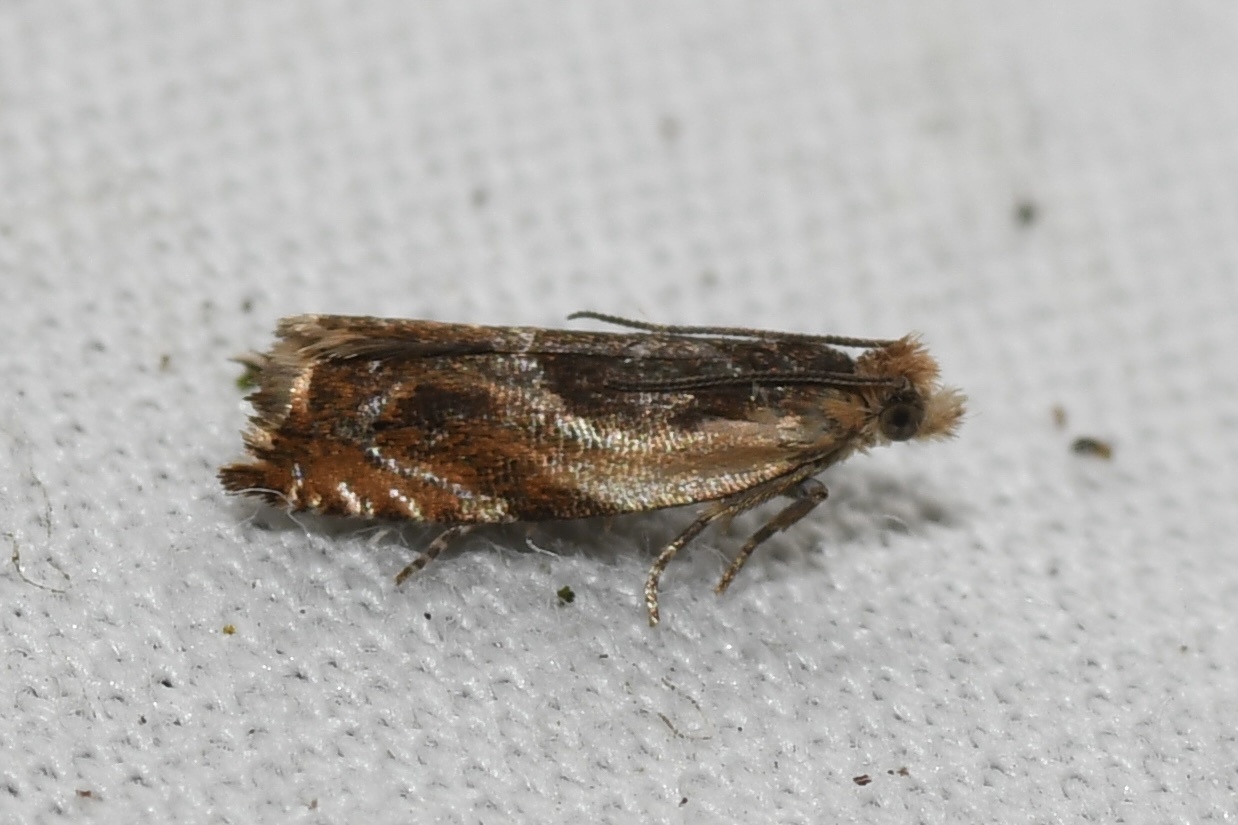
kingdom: Animalia
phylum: Arthropoda
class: Insecta
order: Lepidoptera
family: Tortricidae
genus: Ancylis
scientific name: Ancylis metamelana
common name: Black-marked ancylis moth
